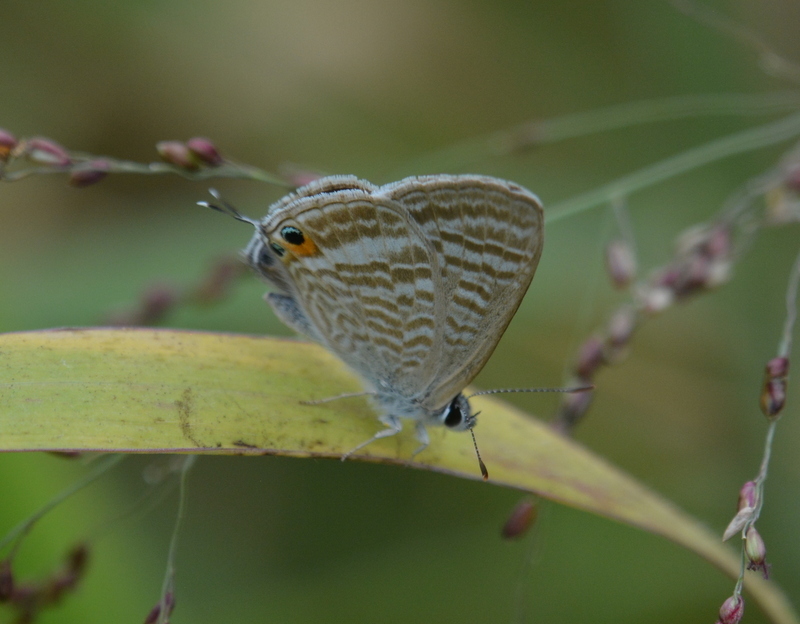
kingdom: Animalia
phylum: Arthropoda
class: Insecta
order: Lepidoptera
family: Lycaenidae
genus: Lampides
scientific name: Lampides boeticus
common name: Long-tailed blue
